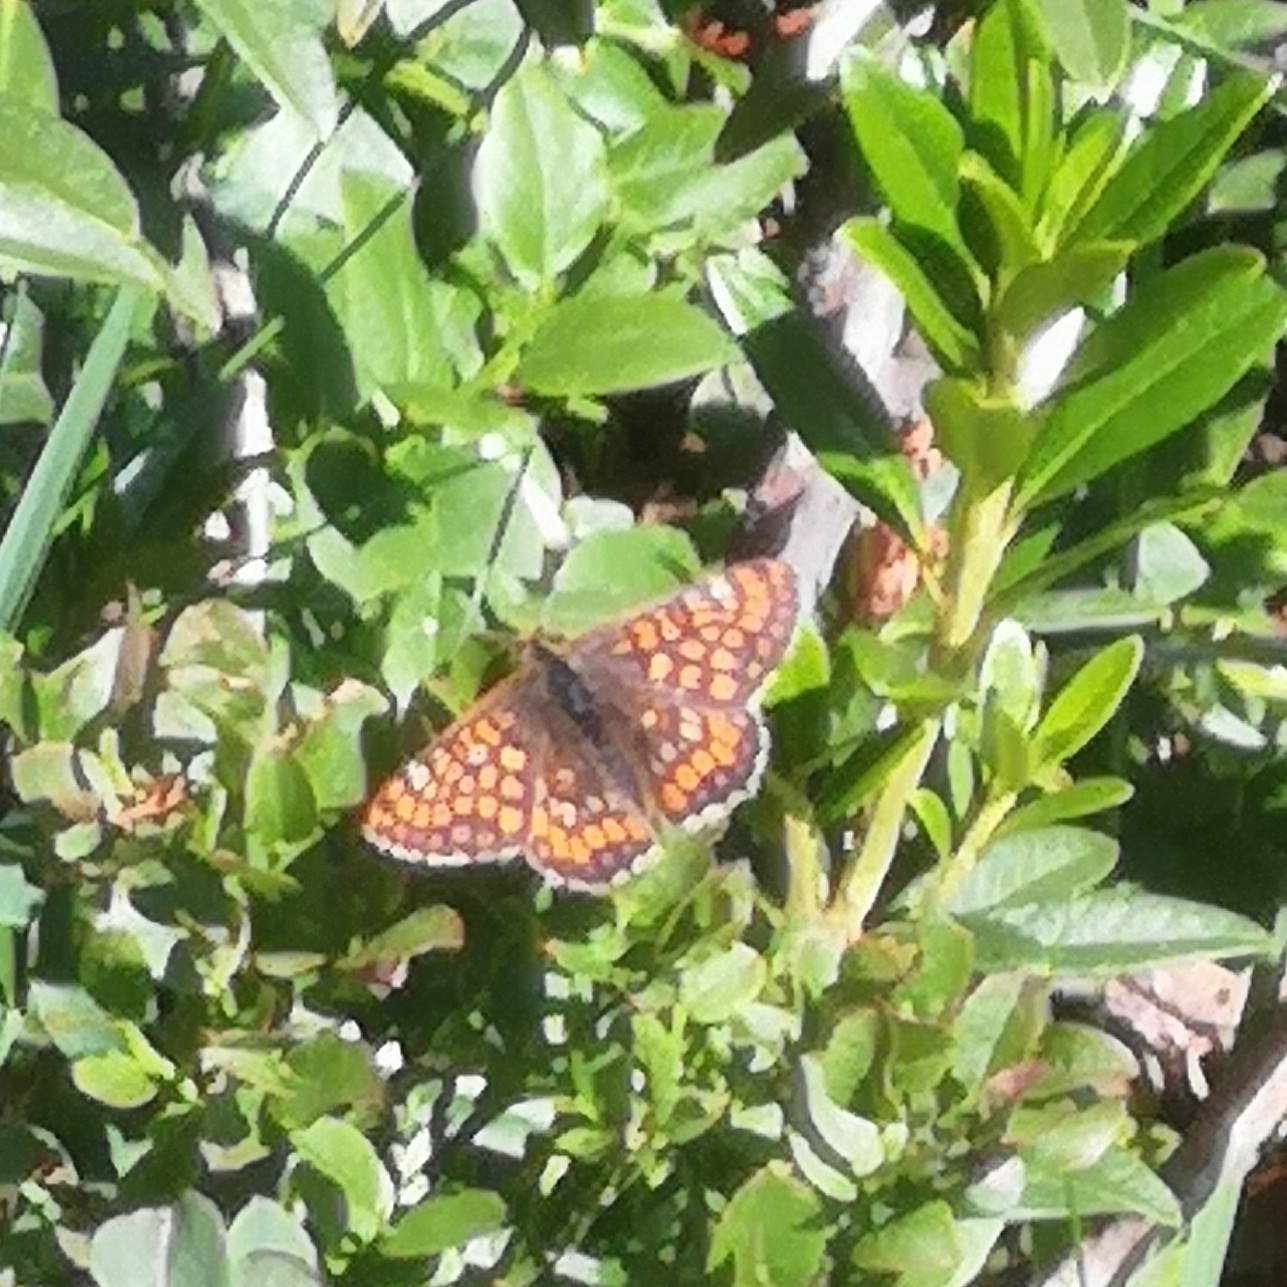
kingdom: Animalia
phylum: Arthropoda
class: Insecta
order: Lepidoptera
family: Nymphalidae
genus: Hypodryas
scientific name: Hypodryas intermedia
